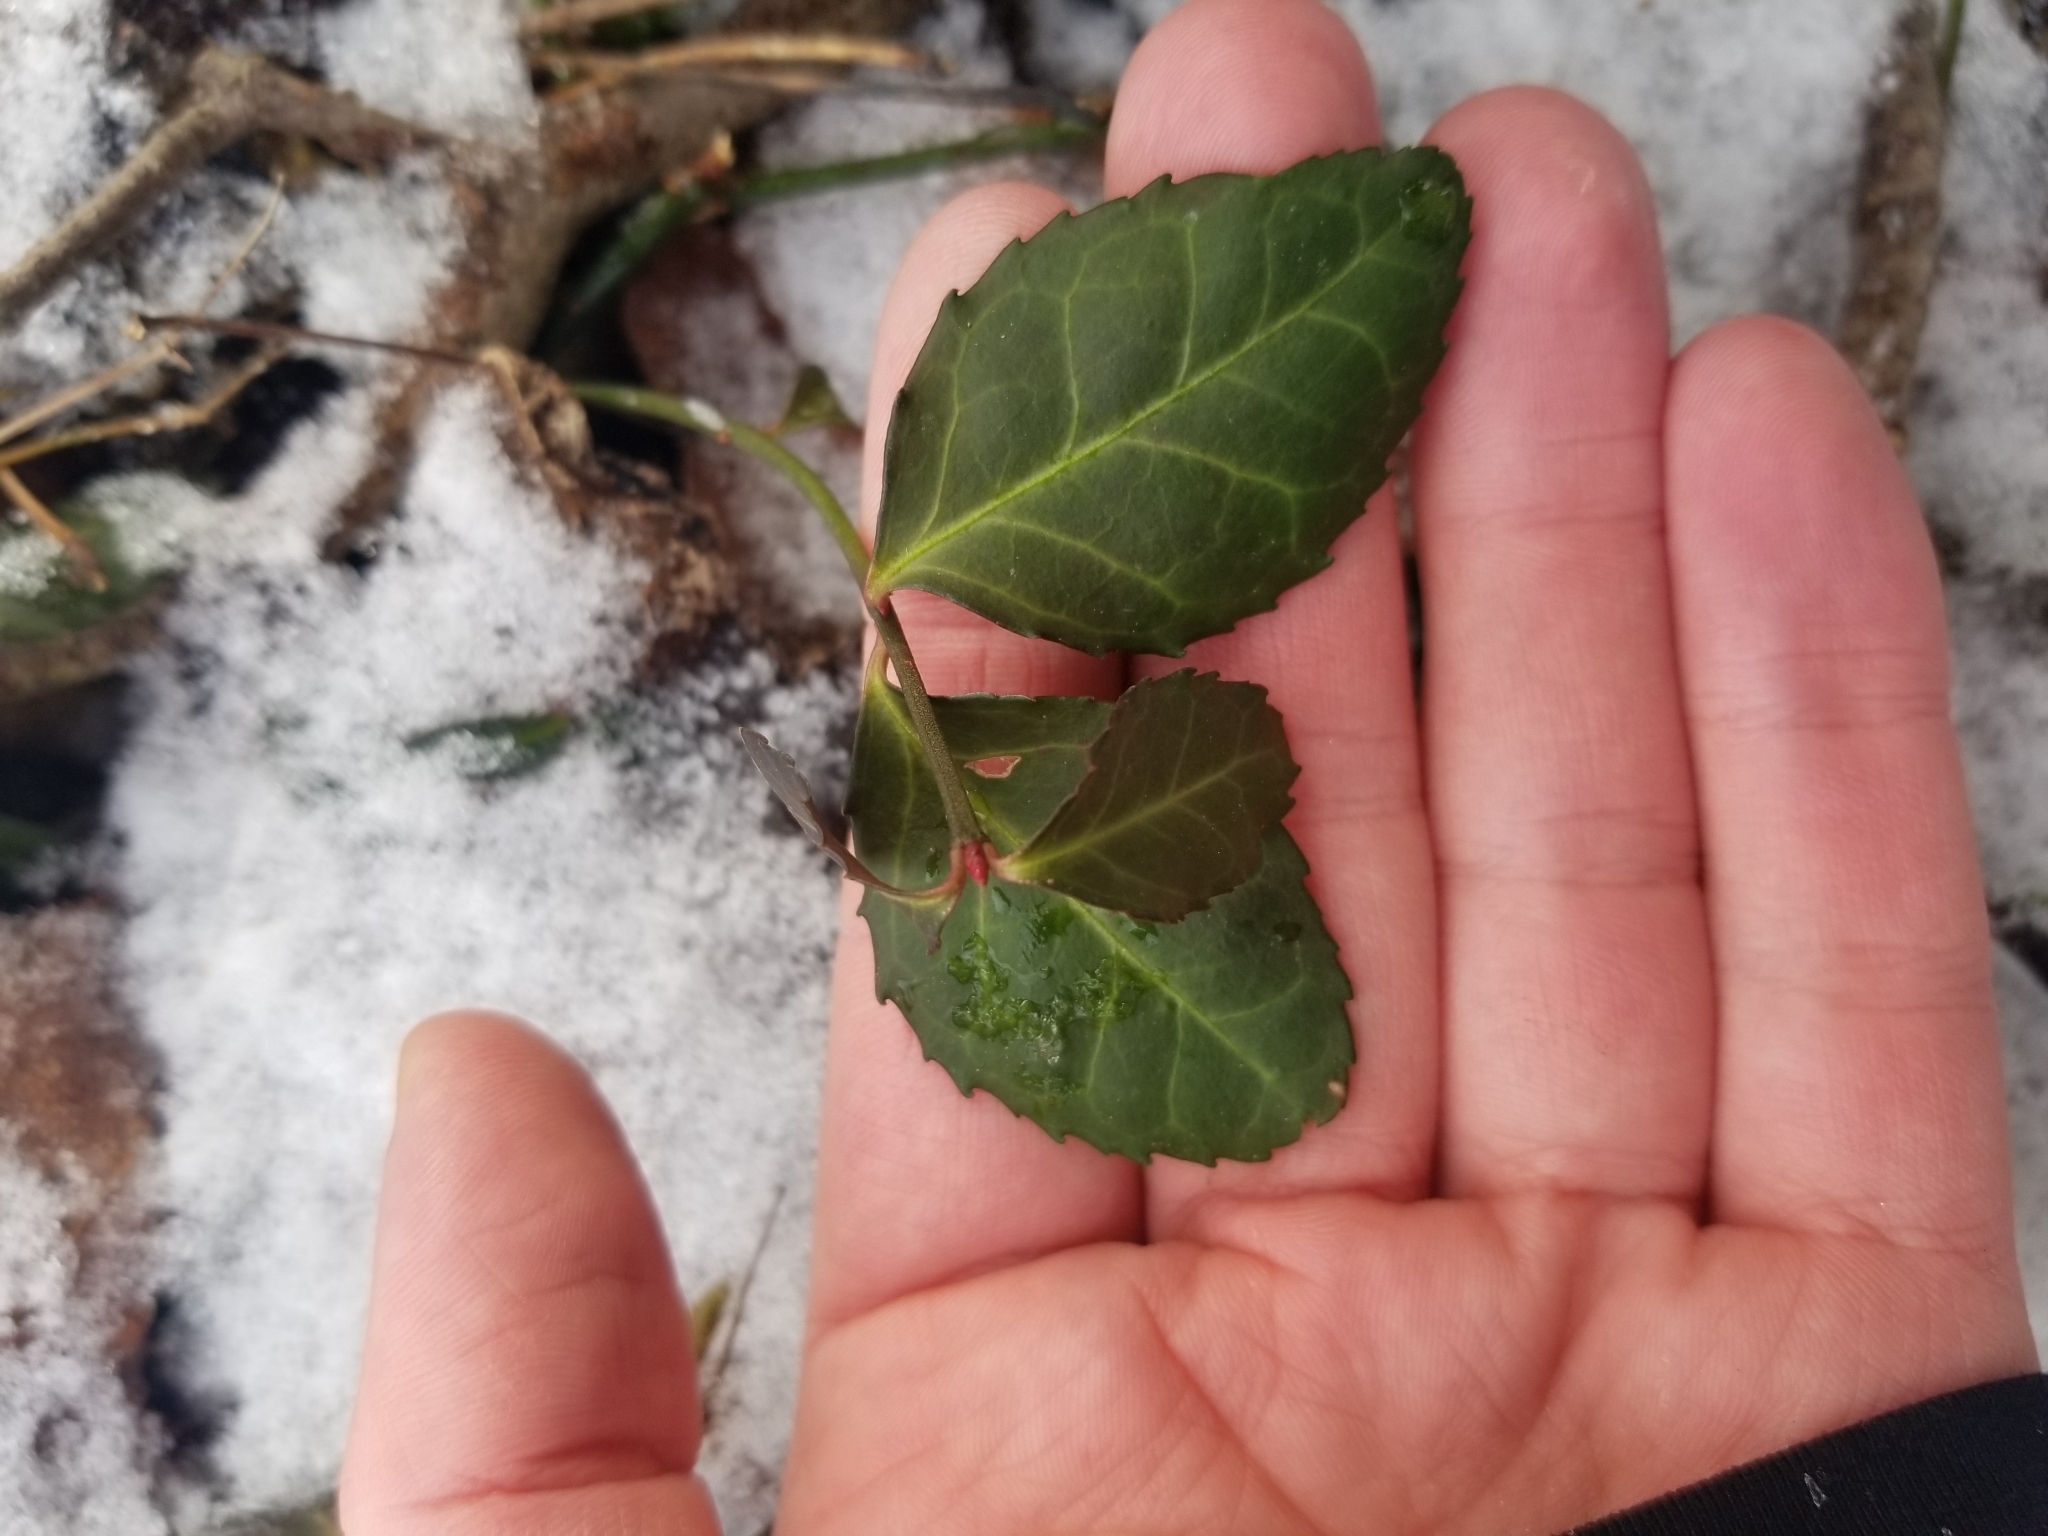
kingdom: Plantae
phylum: Tracheophyta
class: Magnoliopsida
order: Celastrales
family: Celastraceae
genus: Euonymus
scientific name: Euonymus fortunei
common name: Climbing euonymus
